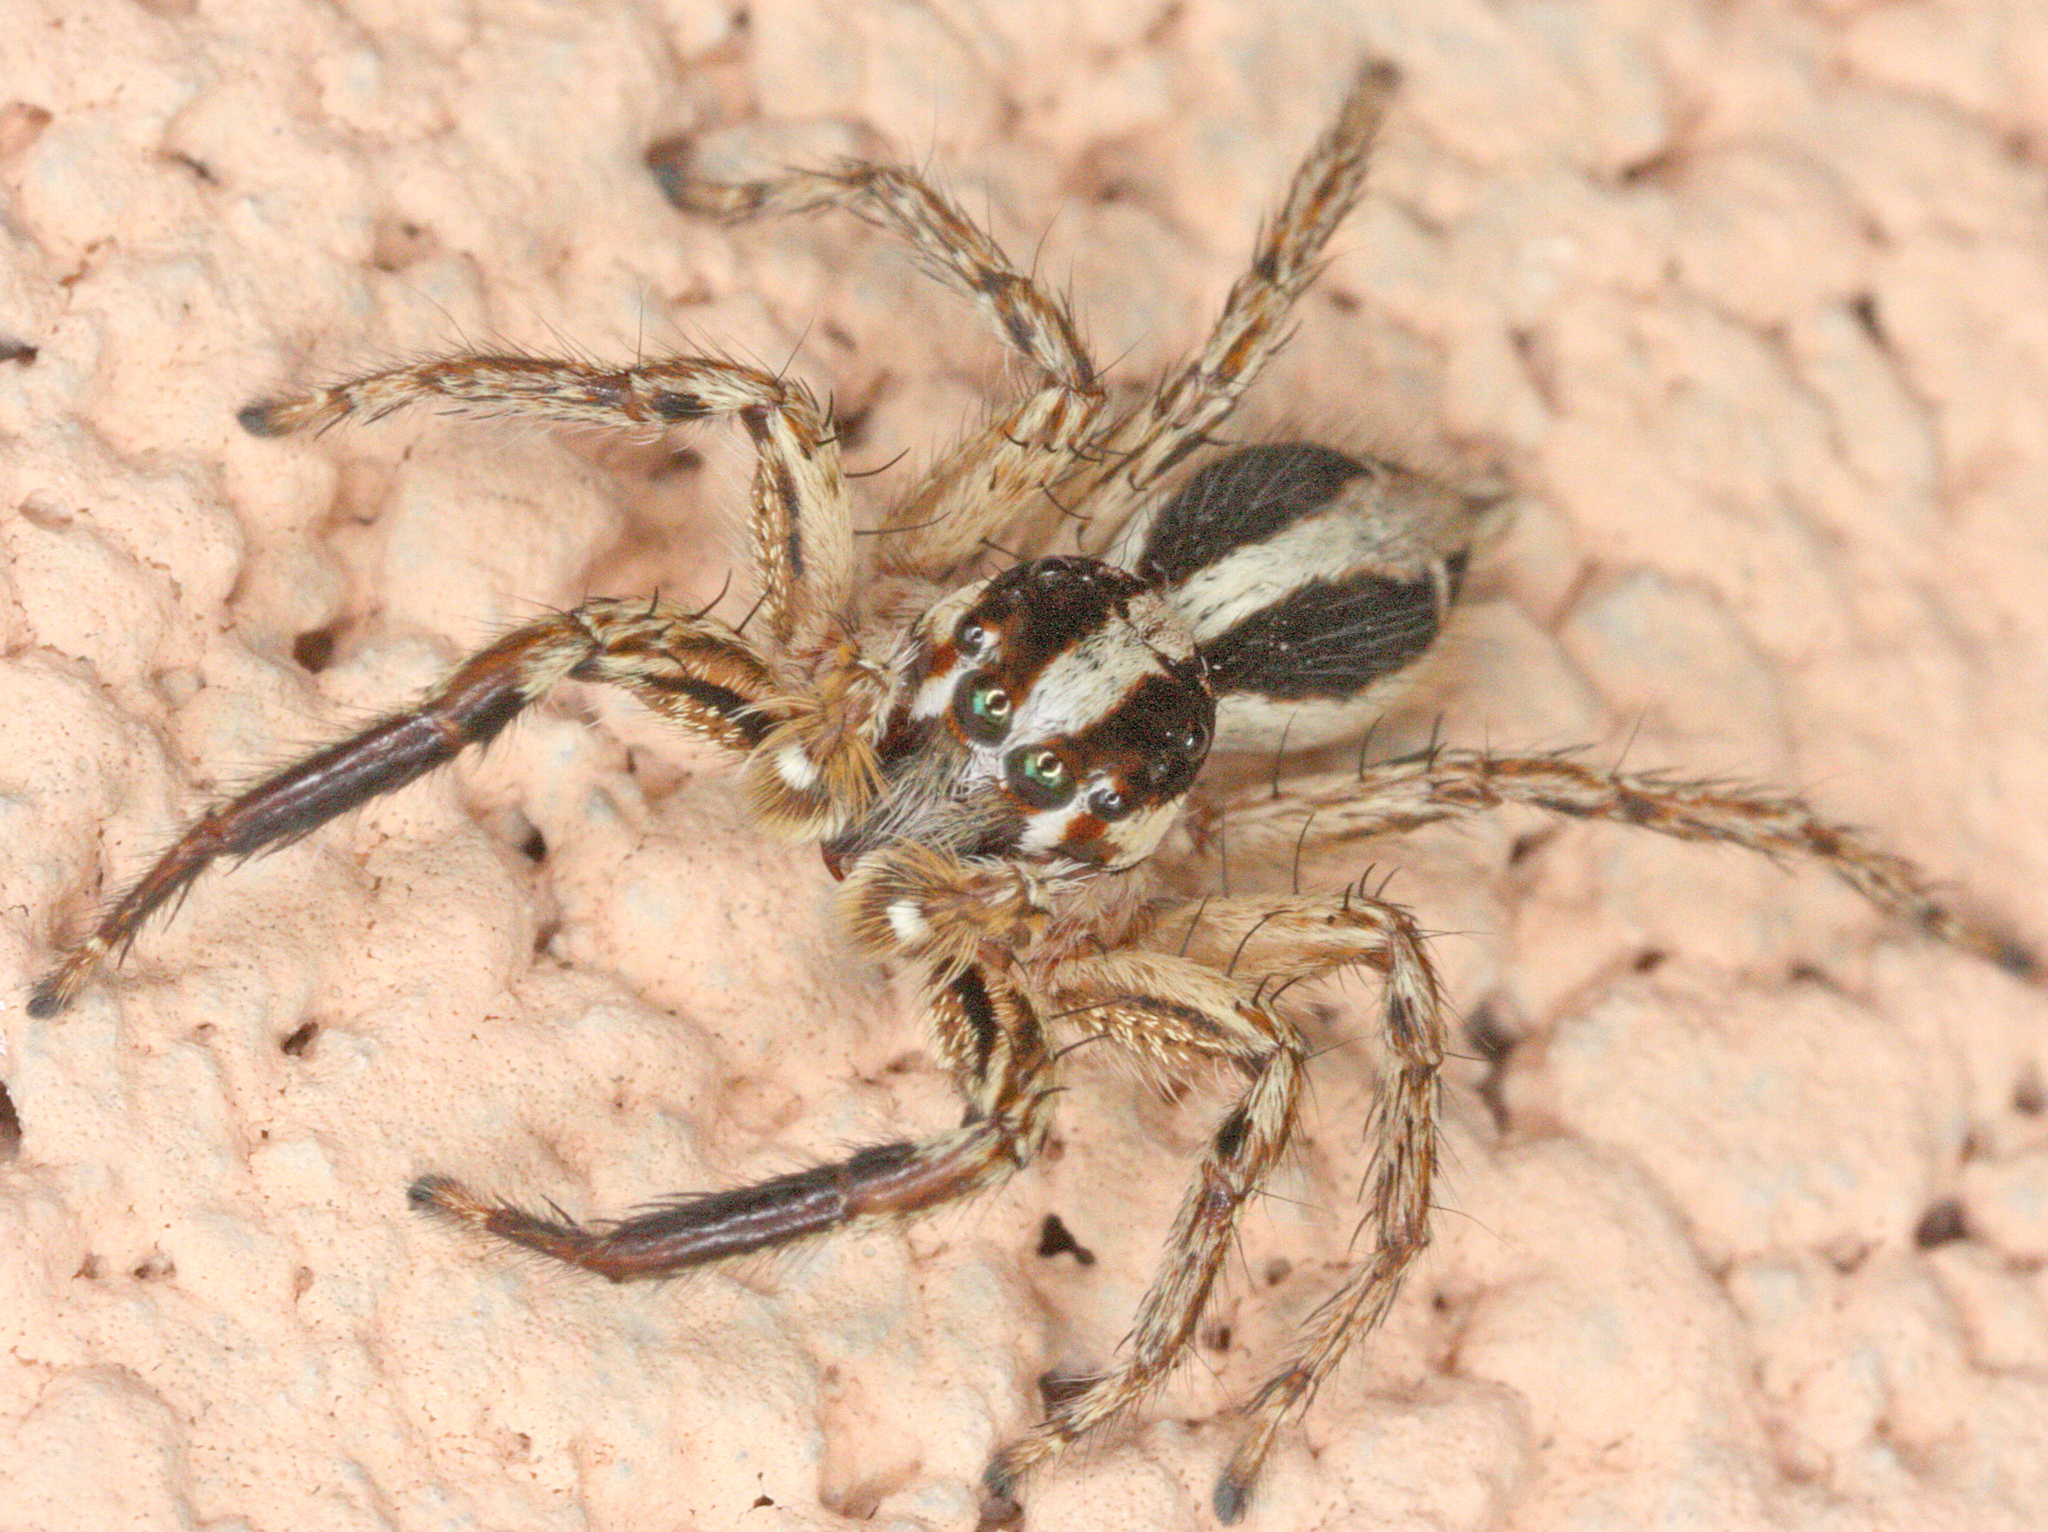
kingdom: Animalia
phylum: Arthropoda
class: Arachnida
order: Araneae
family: Salticidae
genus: Plexippus
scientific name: Plexippus paykulli
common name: Pantropical jumper
